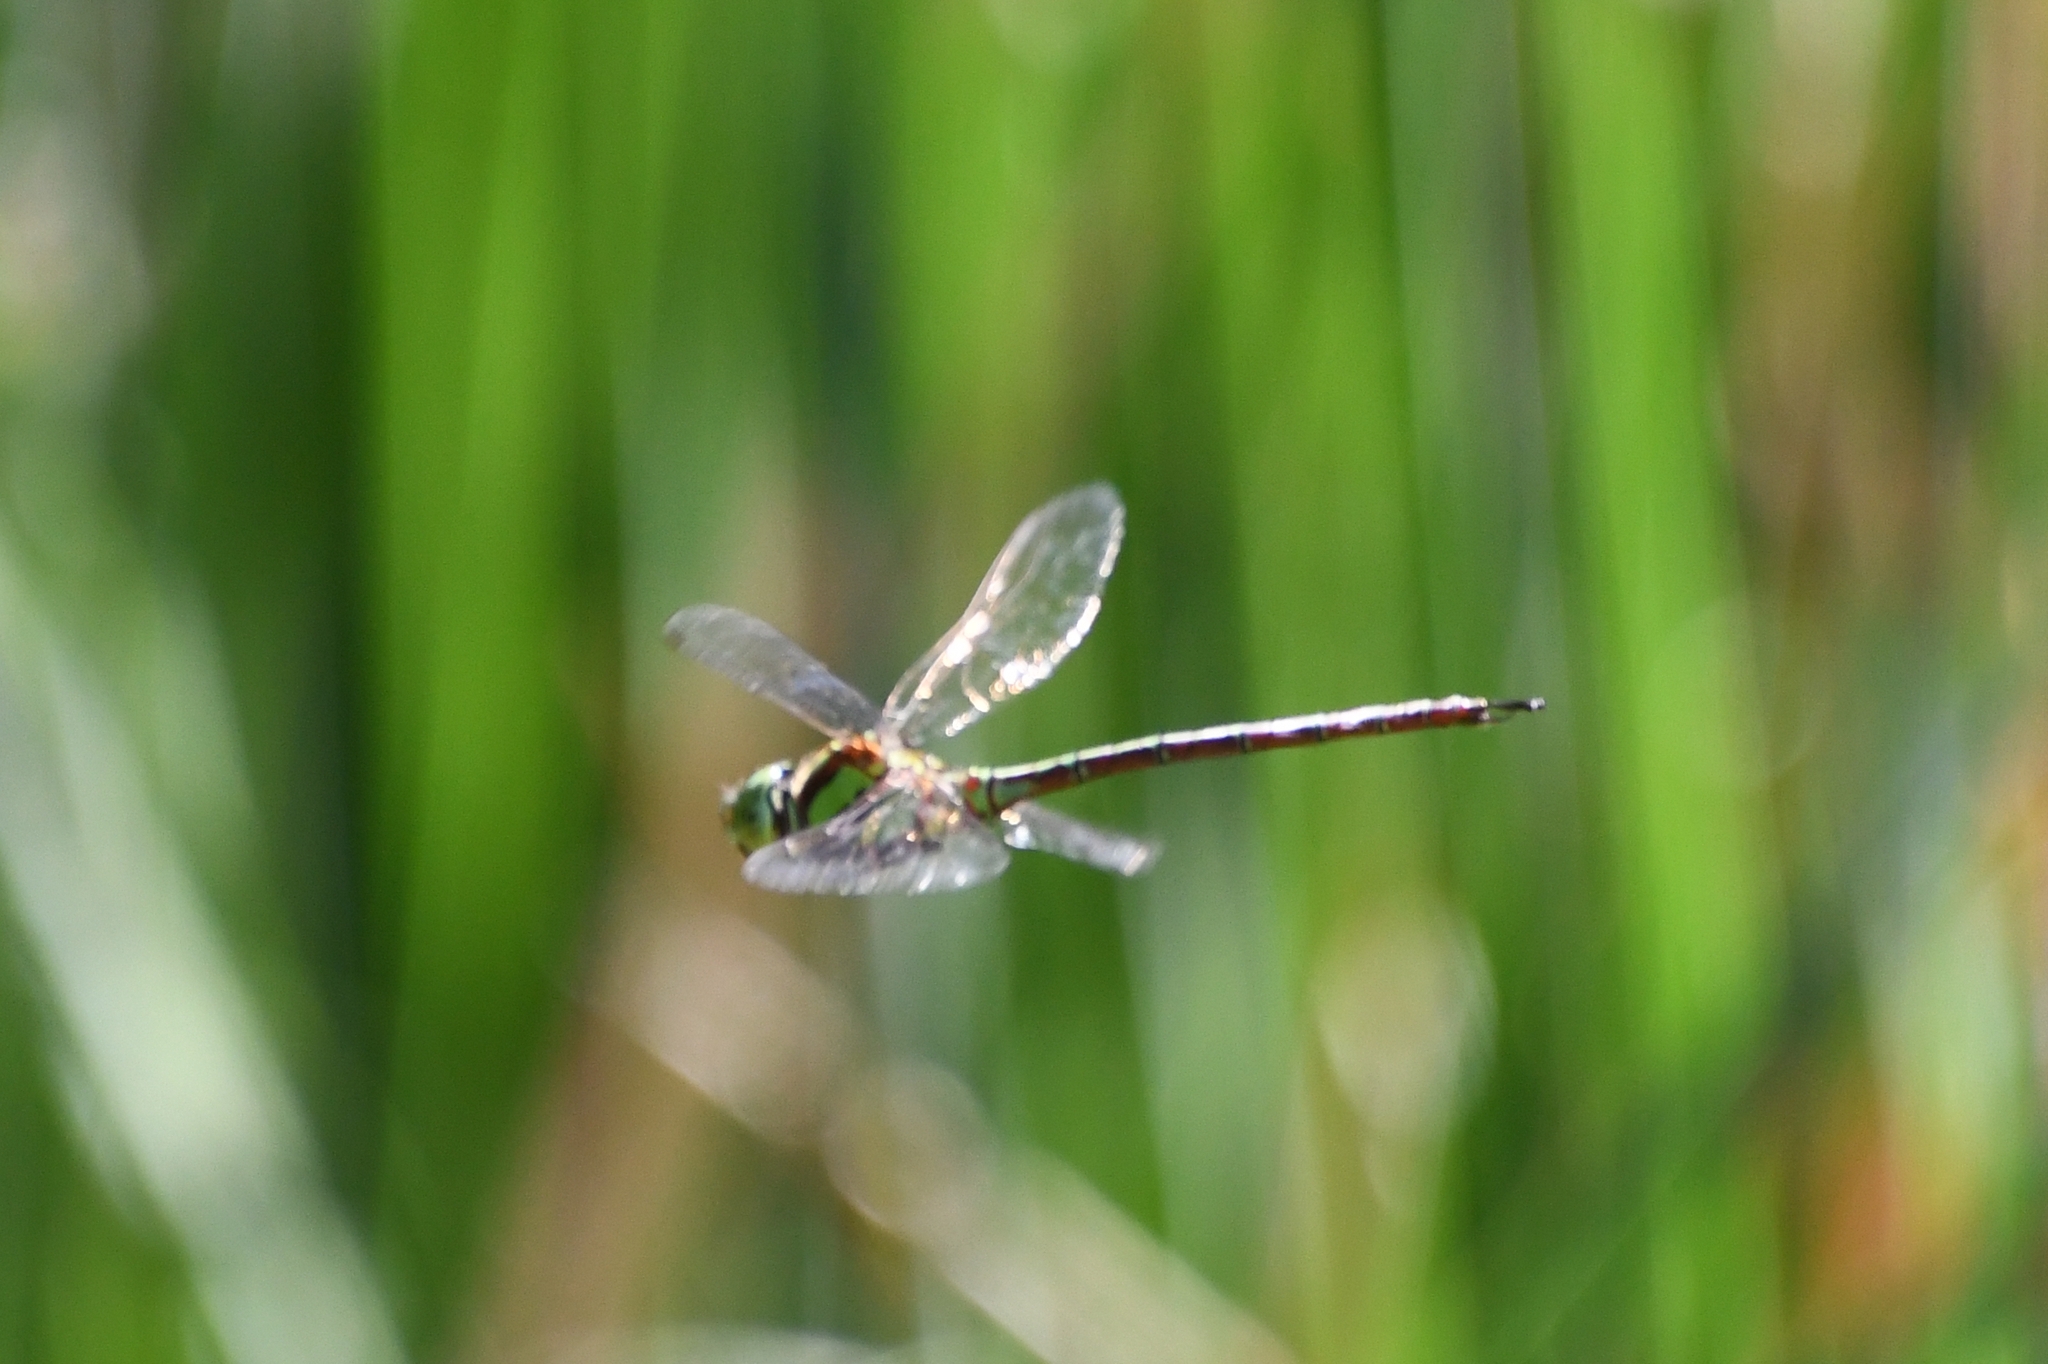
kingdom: Animalia
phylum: Arthropoda
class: Insecta
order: Odonata
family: Aeshnidae
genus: Remartinia
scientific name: Remartinia luteipennis
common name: Malachite darner
